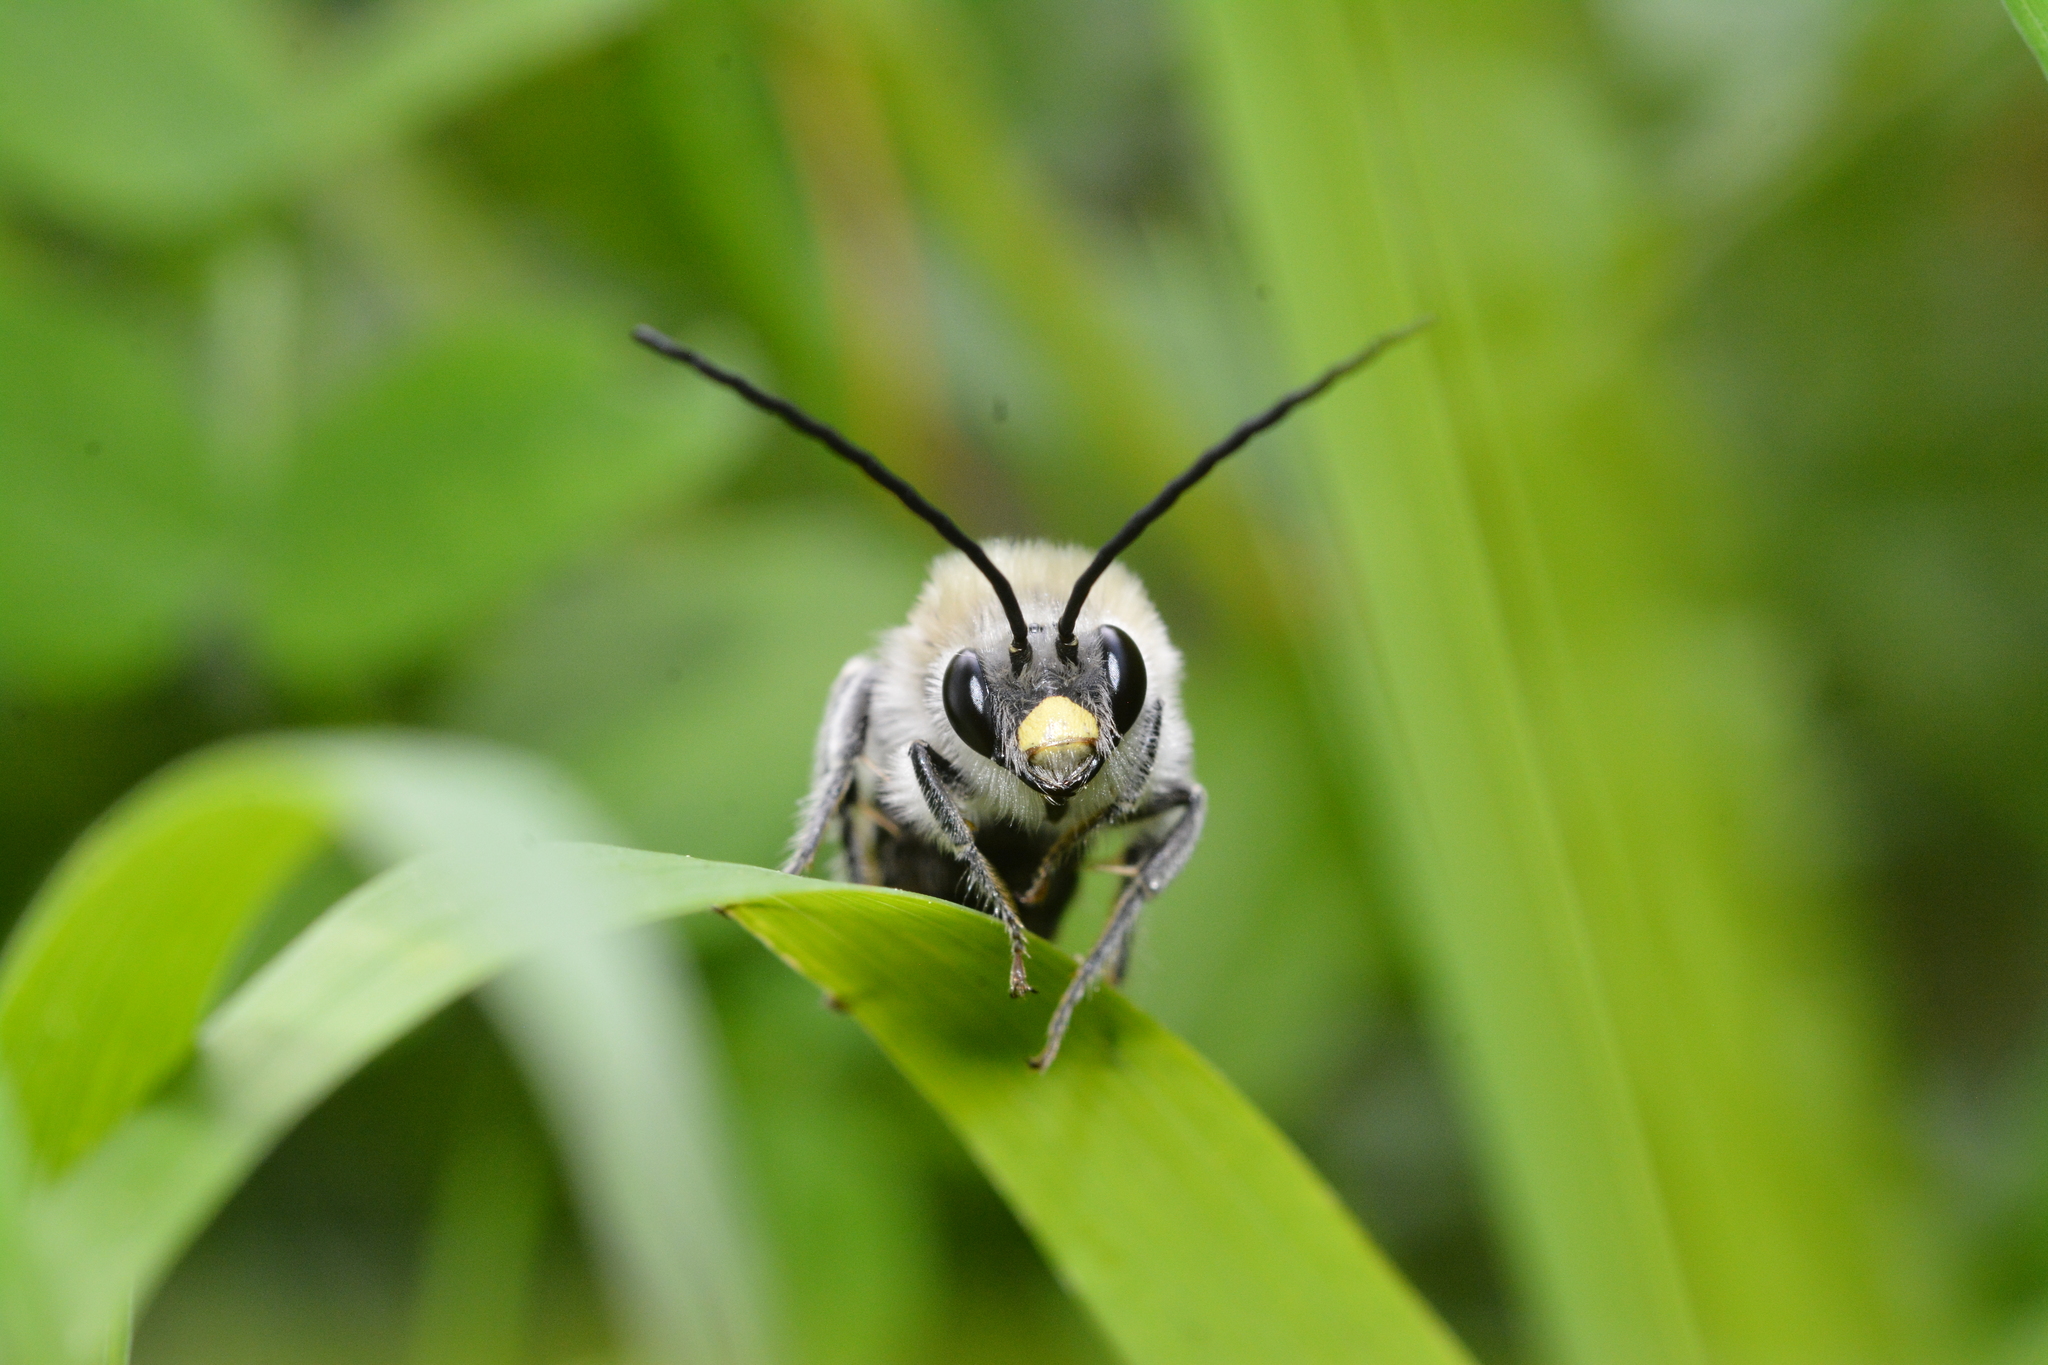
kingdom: Animalia
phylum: Arthropoda
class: Insecta
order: Hymenoptera
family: Apidae
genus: Eucera
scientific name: Eucera nigrescens
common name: Tuberculate long-horned bee
